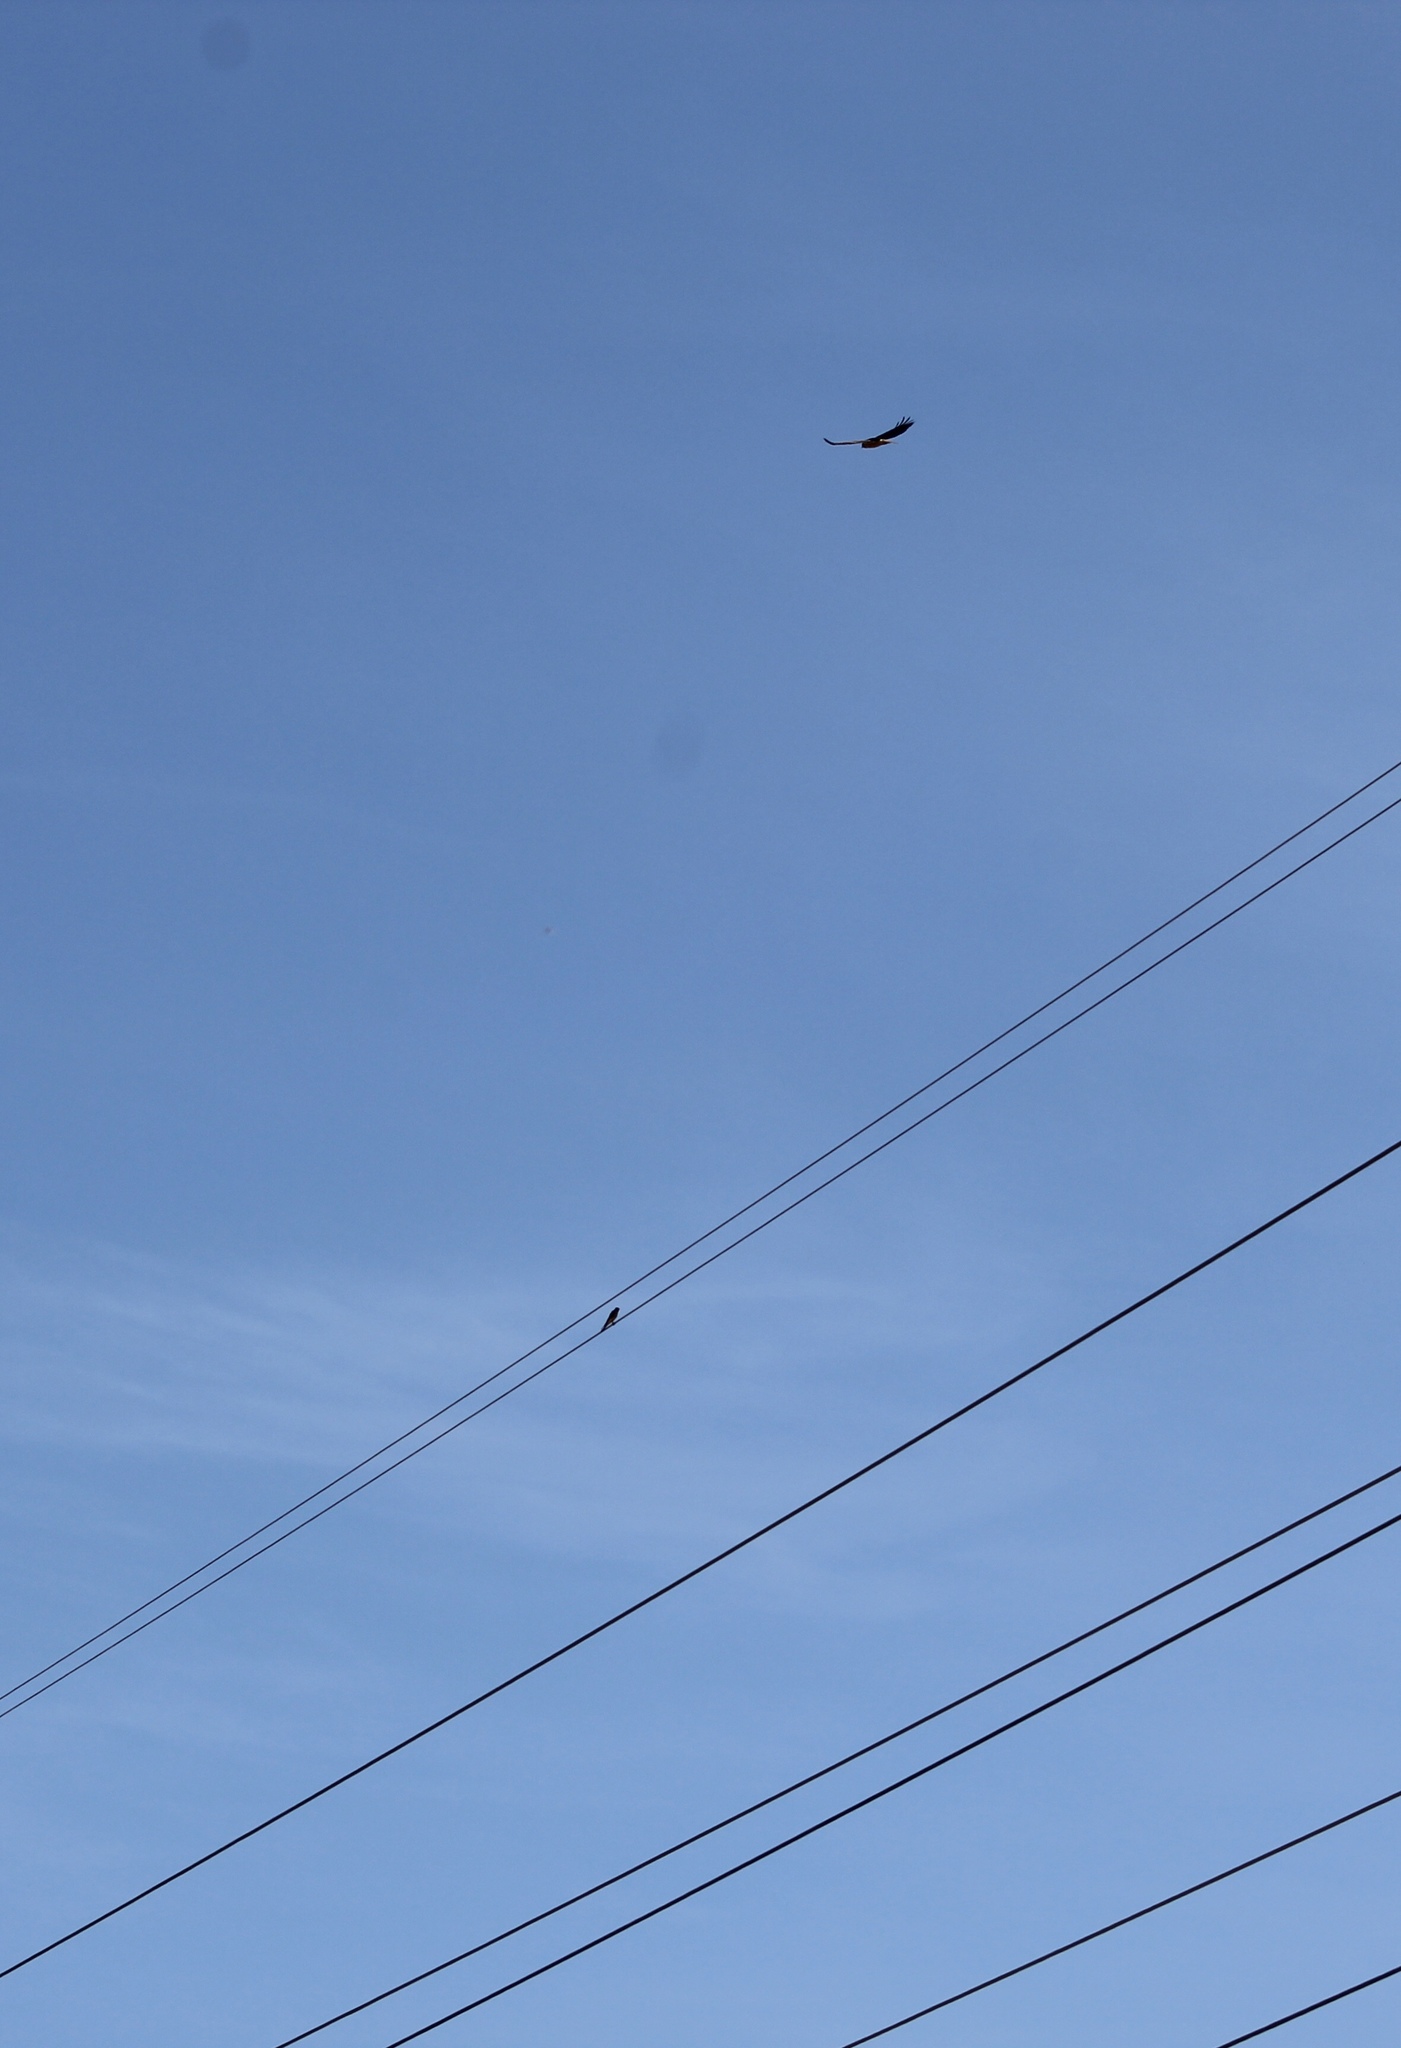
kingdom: Animalia
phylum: Chordata
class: Aves
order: Falconiformes
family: Falconidae
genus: Falco
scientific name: Falco sparverius
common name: American kestrel
